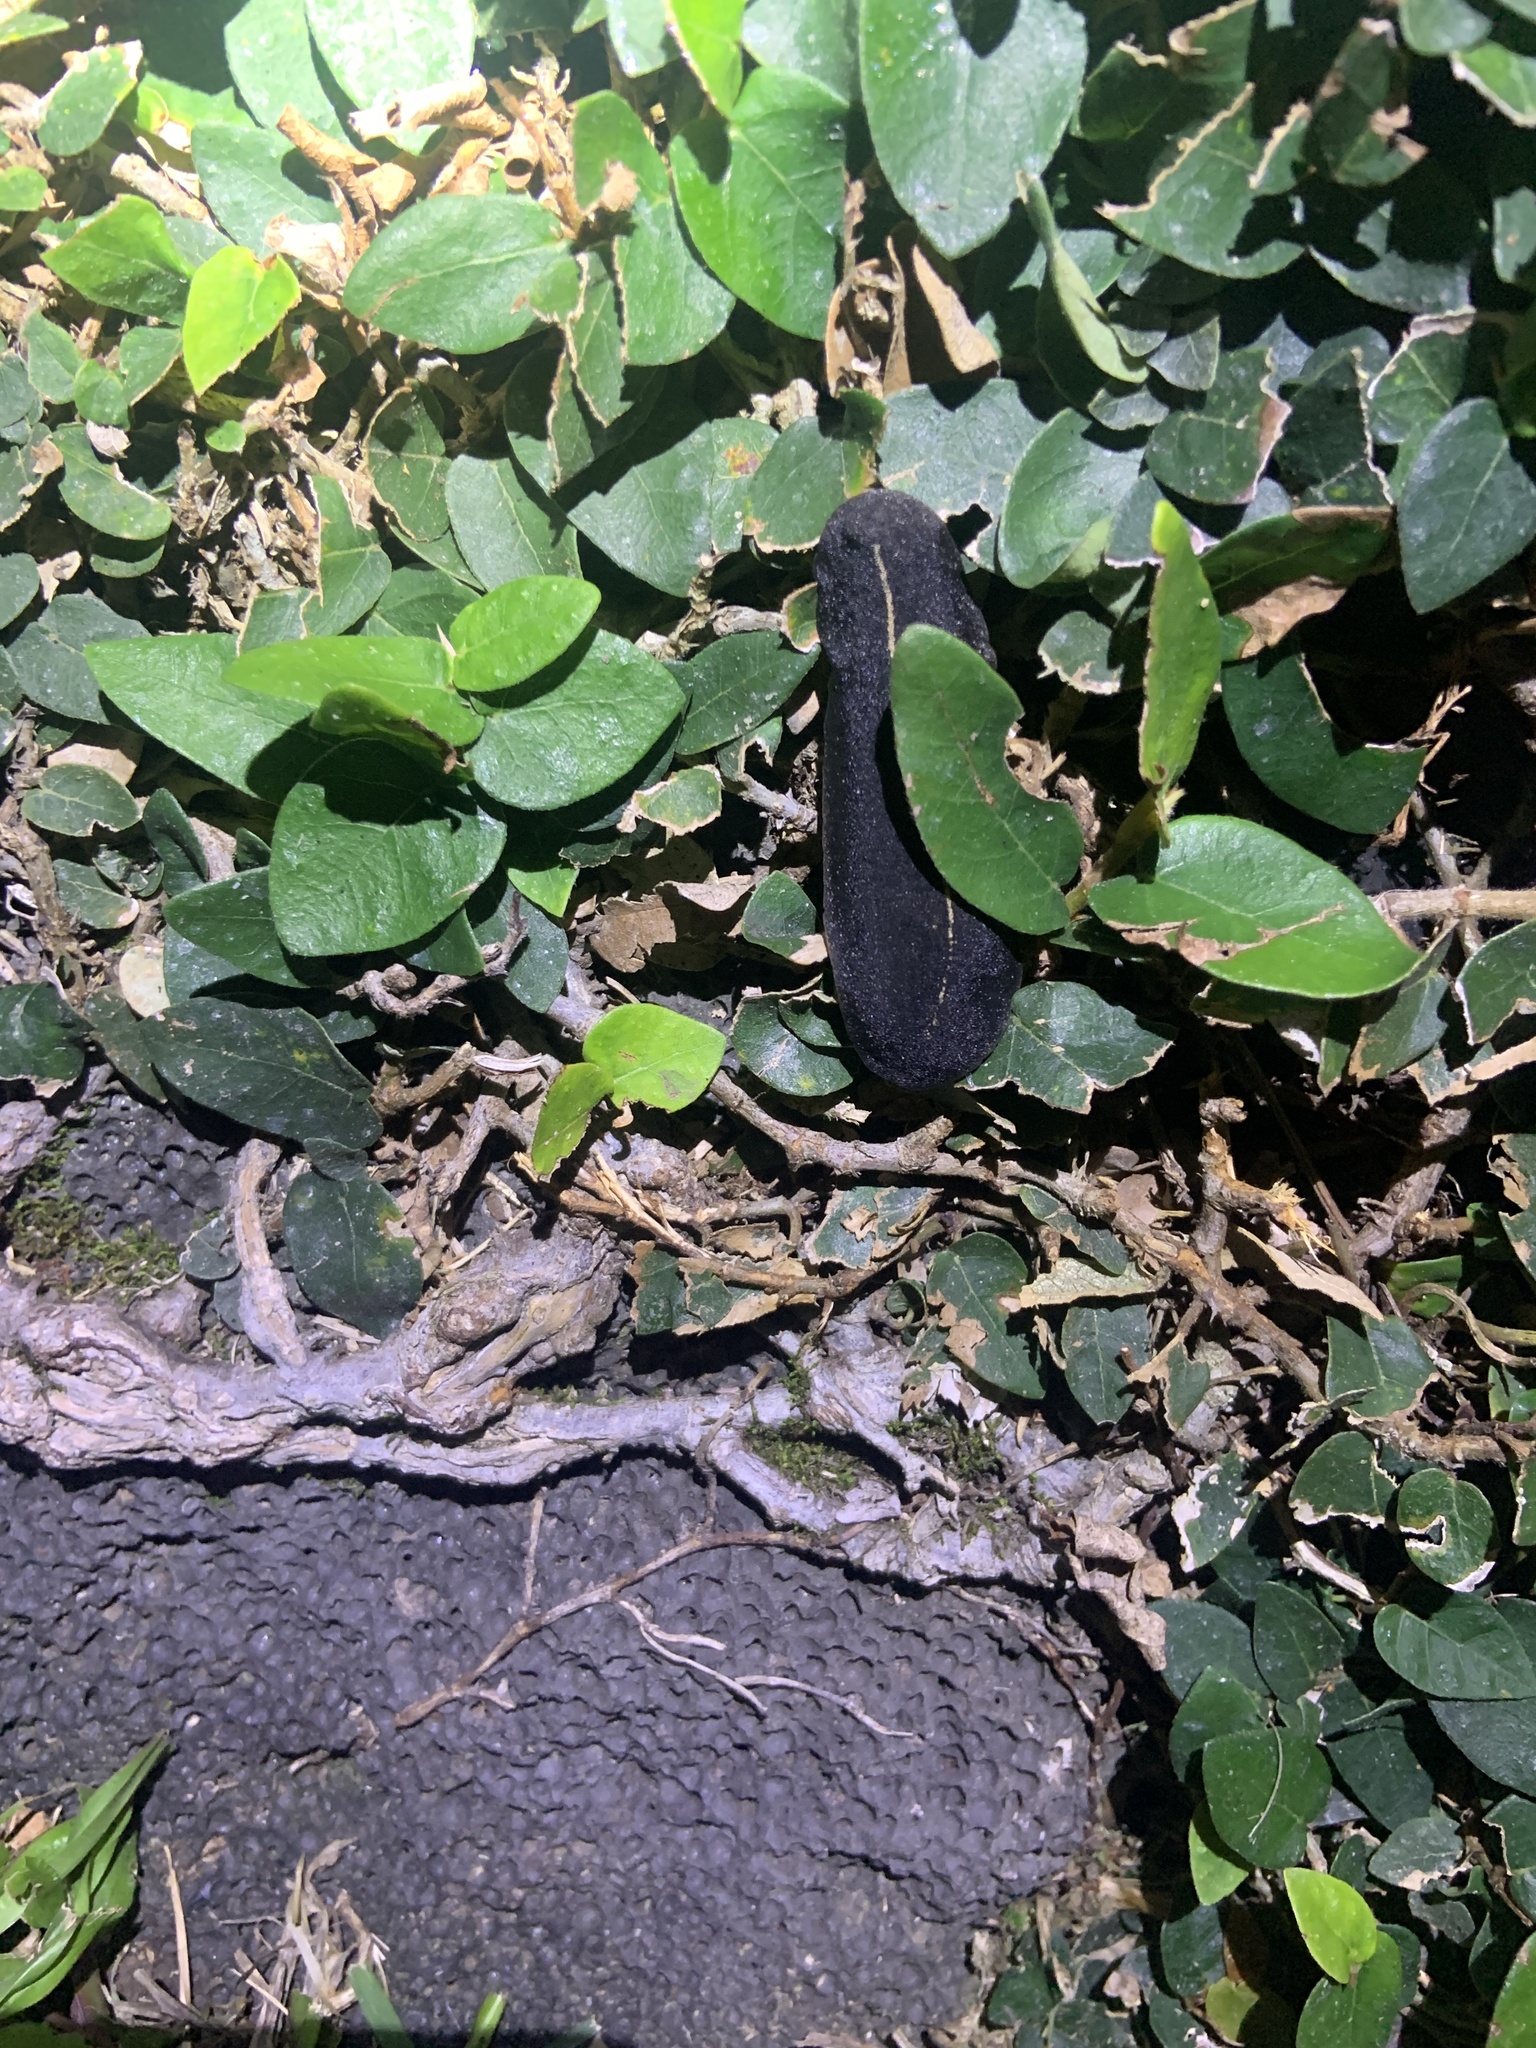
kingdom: Animalia
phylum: Mollusca
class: Gastropoda
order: Systellommatophora
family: Veronicellidae
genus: Laevicaulis
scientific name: Laevicaulis alte
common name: Tropical leatherleaf
